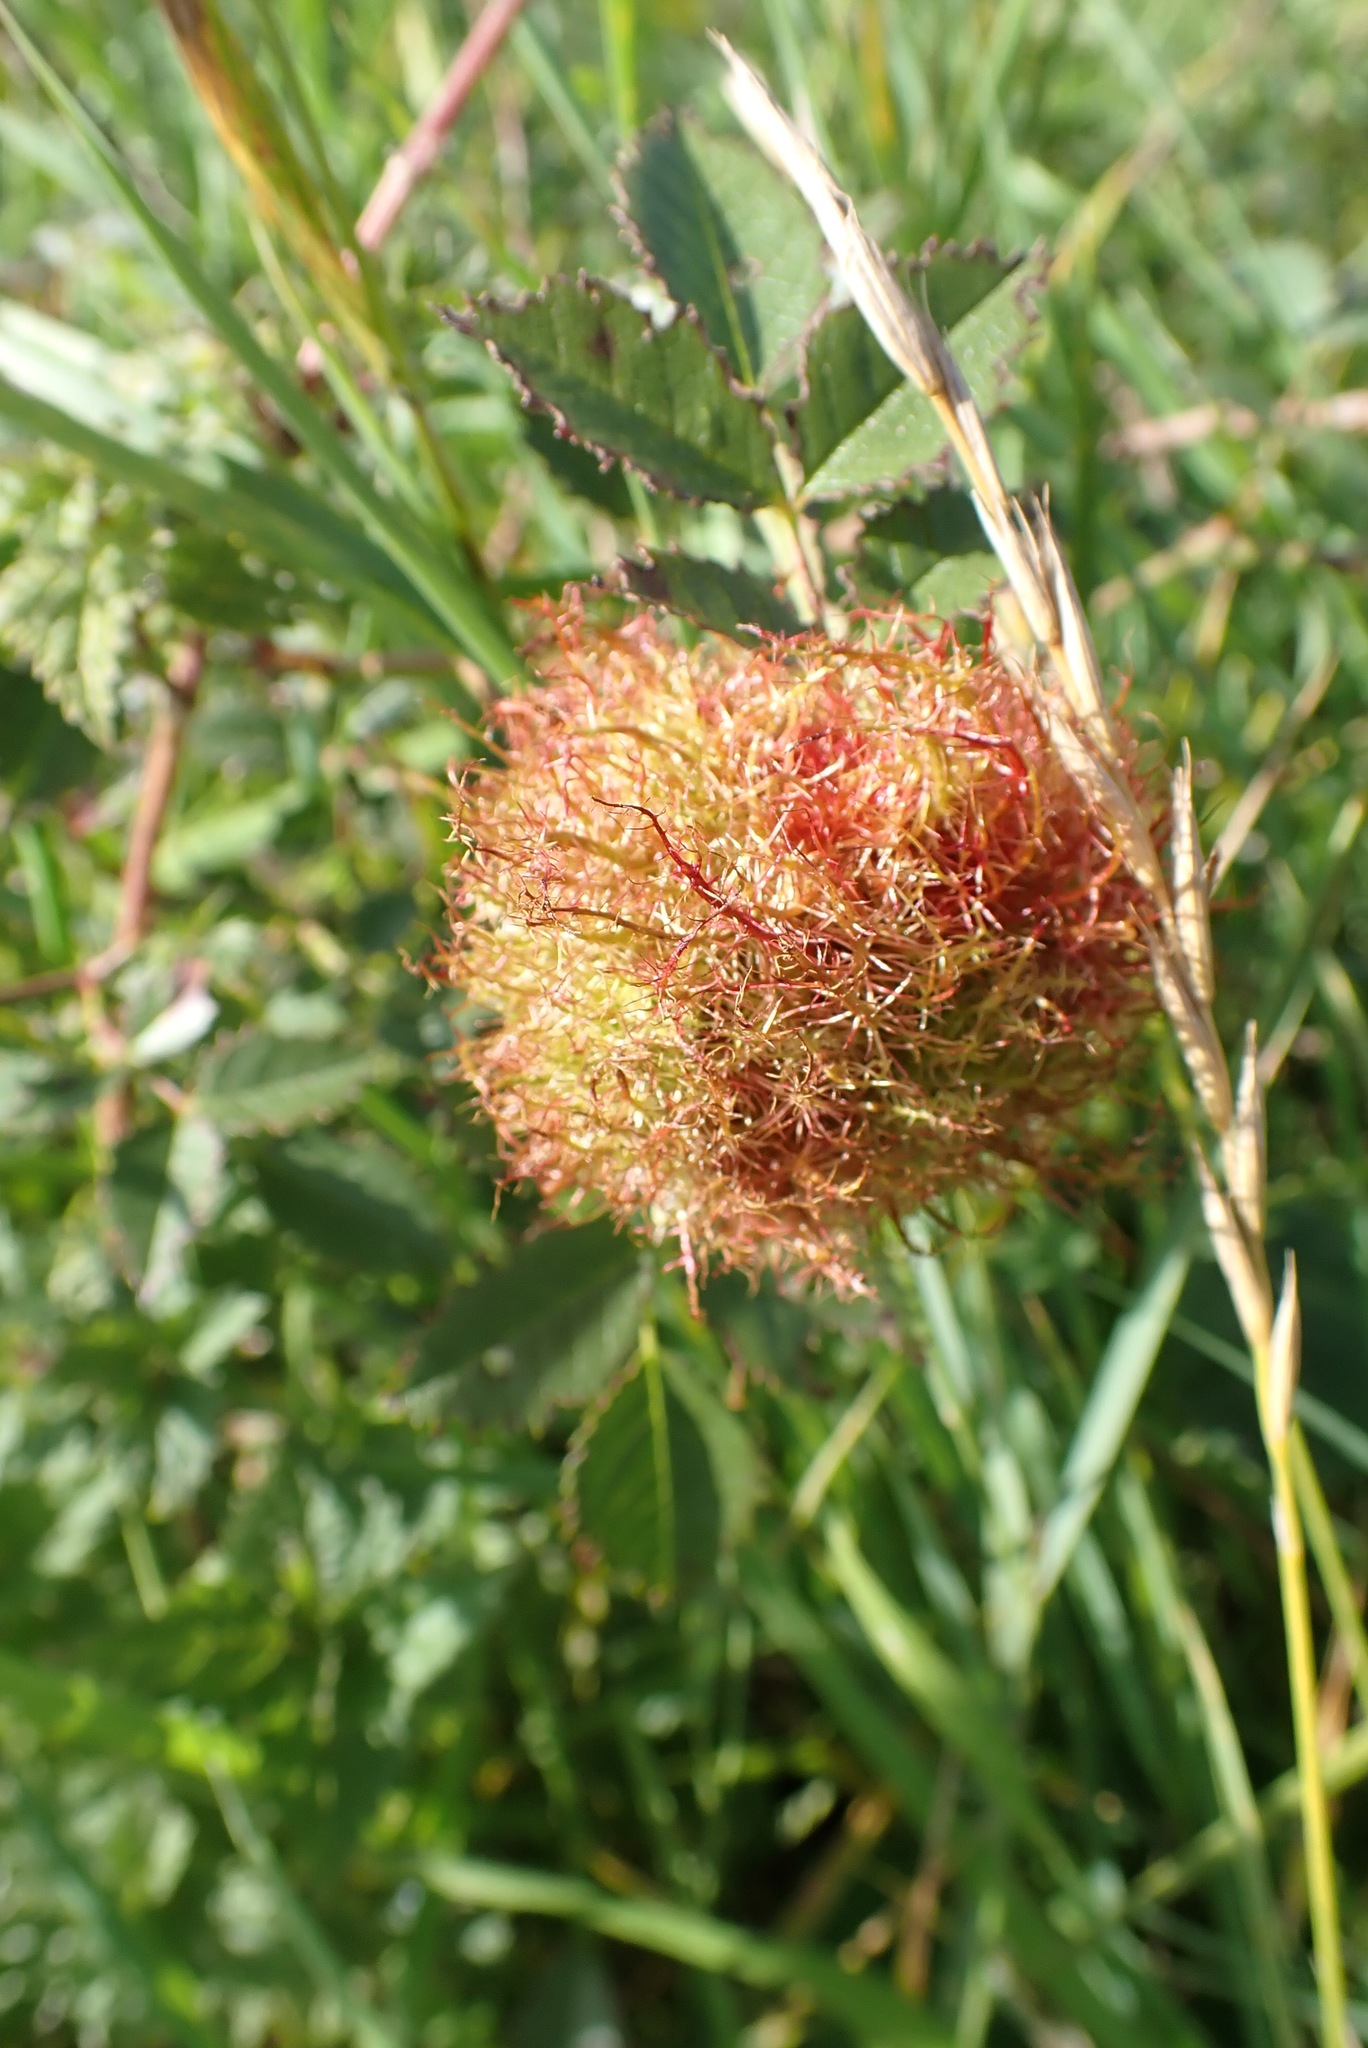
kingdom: Animalia
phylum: Arthropoda
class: Insecta
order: Hymenoptera
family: Cynipidae
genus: Diplolepis
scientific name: Diplolepis rosae
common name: Bedeguar gall
